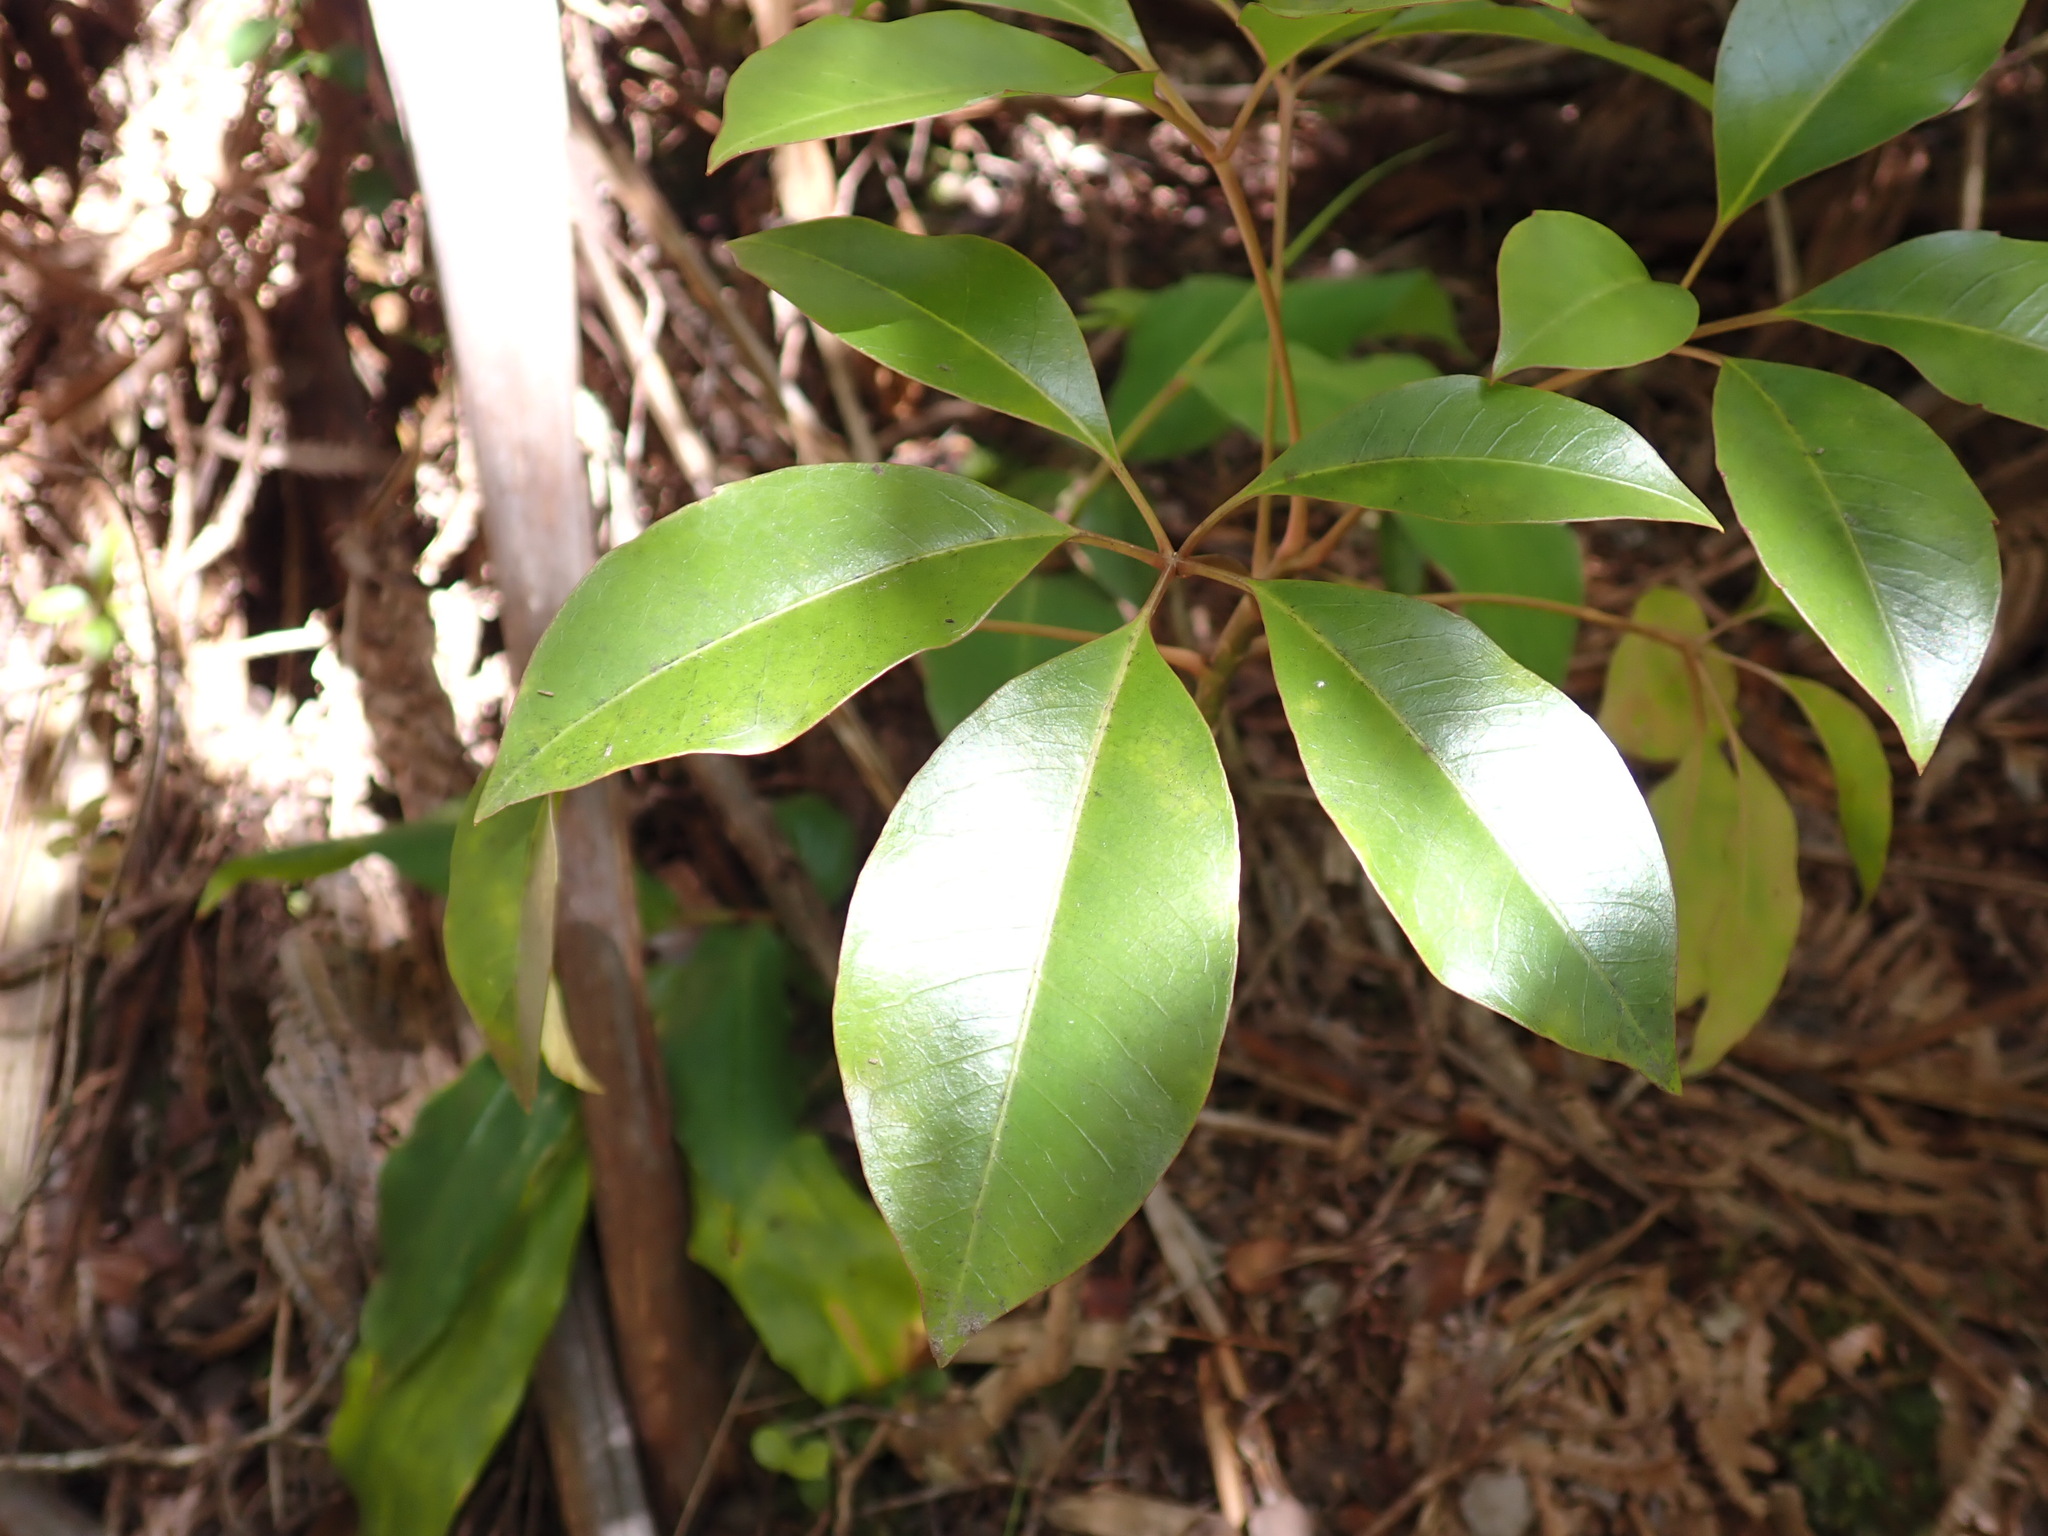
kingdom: Plantae
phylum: Tracheophyta
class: Magnoliopsida
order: Apiales
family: Araliaceae
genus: Cheirodendron
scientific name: Cheirodendron trigynum
